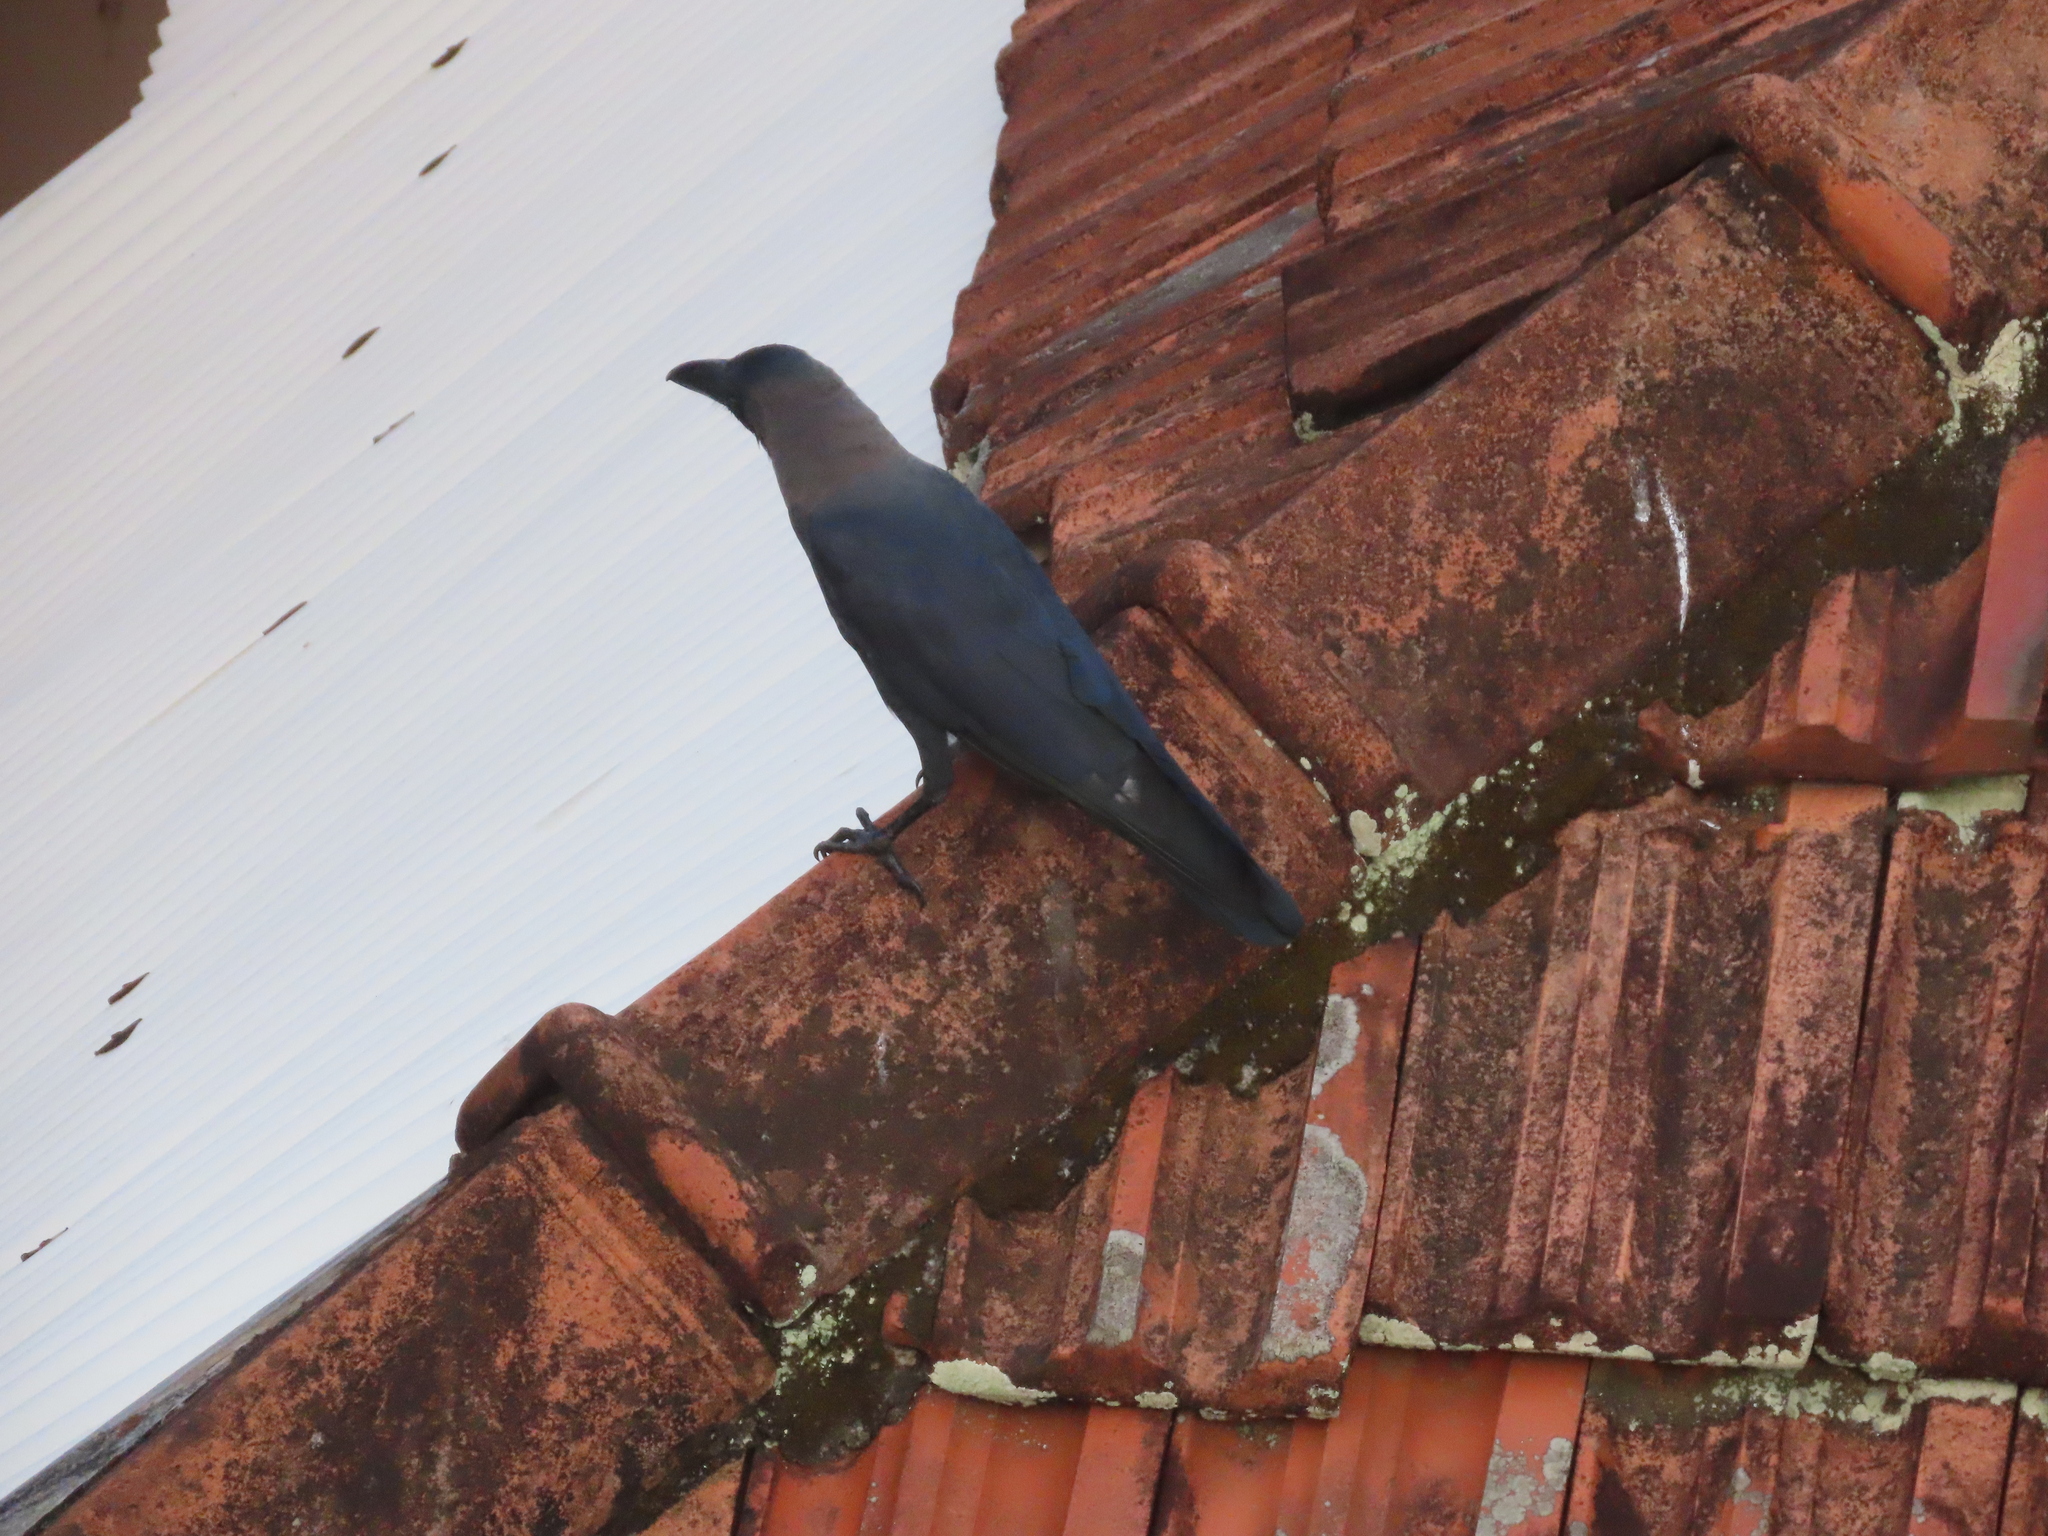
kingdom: Animalia
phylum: Chordata
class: Aves
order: Passeriformes
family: Corvidae
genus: Corvus
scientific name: Corvus splendens
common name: House crow
